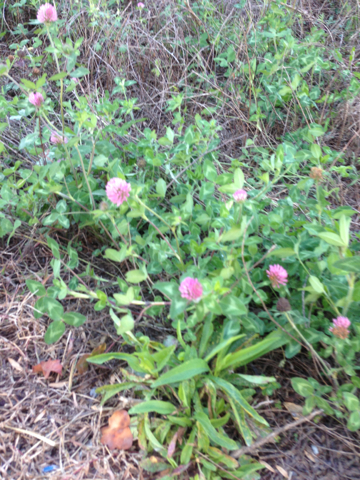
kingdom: Plantae
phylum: Tracheophyta
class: Magnoliopsida
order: Fabales
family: Fabaceae
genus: Trifolium
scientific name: Trifolium pratense
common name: Red clover
